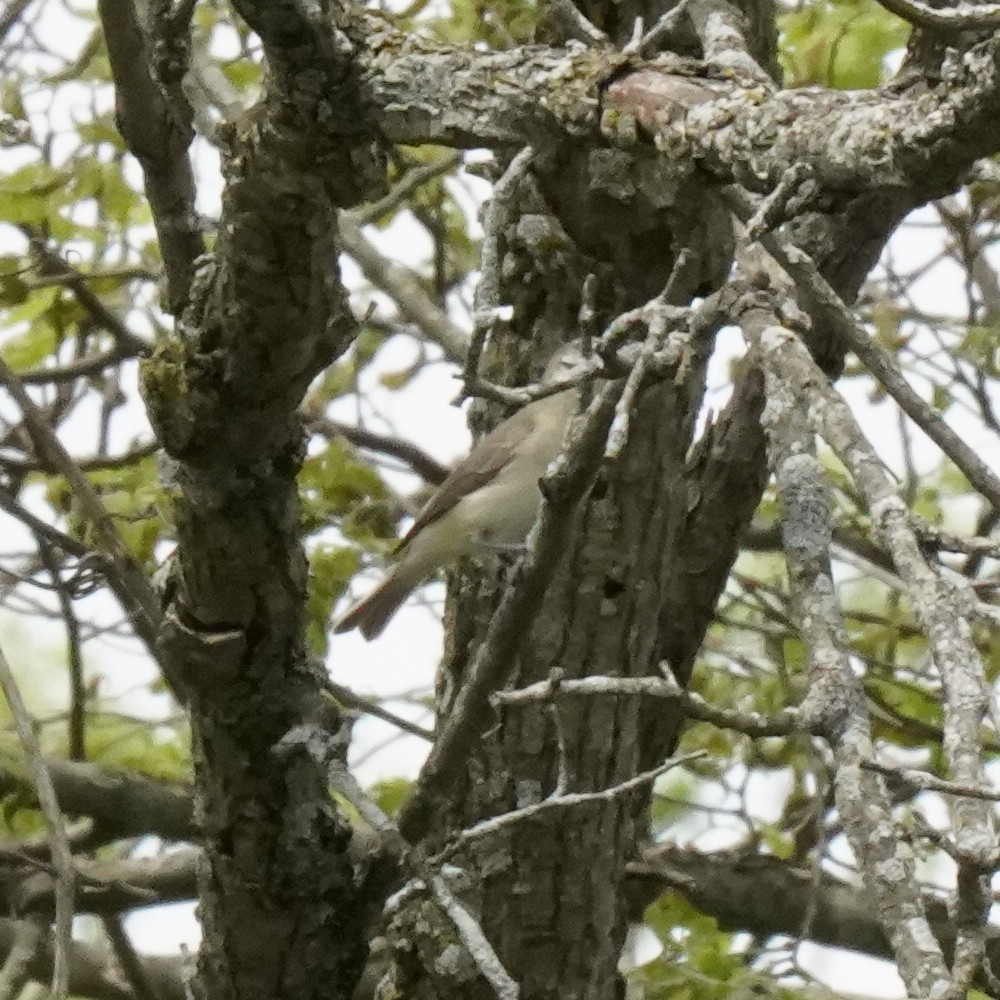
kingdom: Animalia
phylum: Chordata
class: Aves
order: Passeriformes
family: Vireonidae
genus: Vireo
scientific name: Vireo gilvus
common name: Warbling vireo
